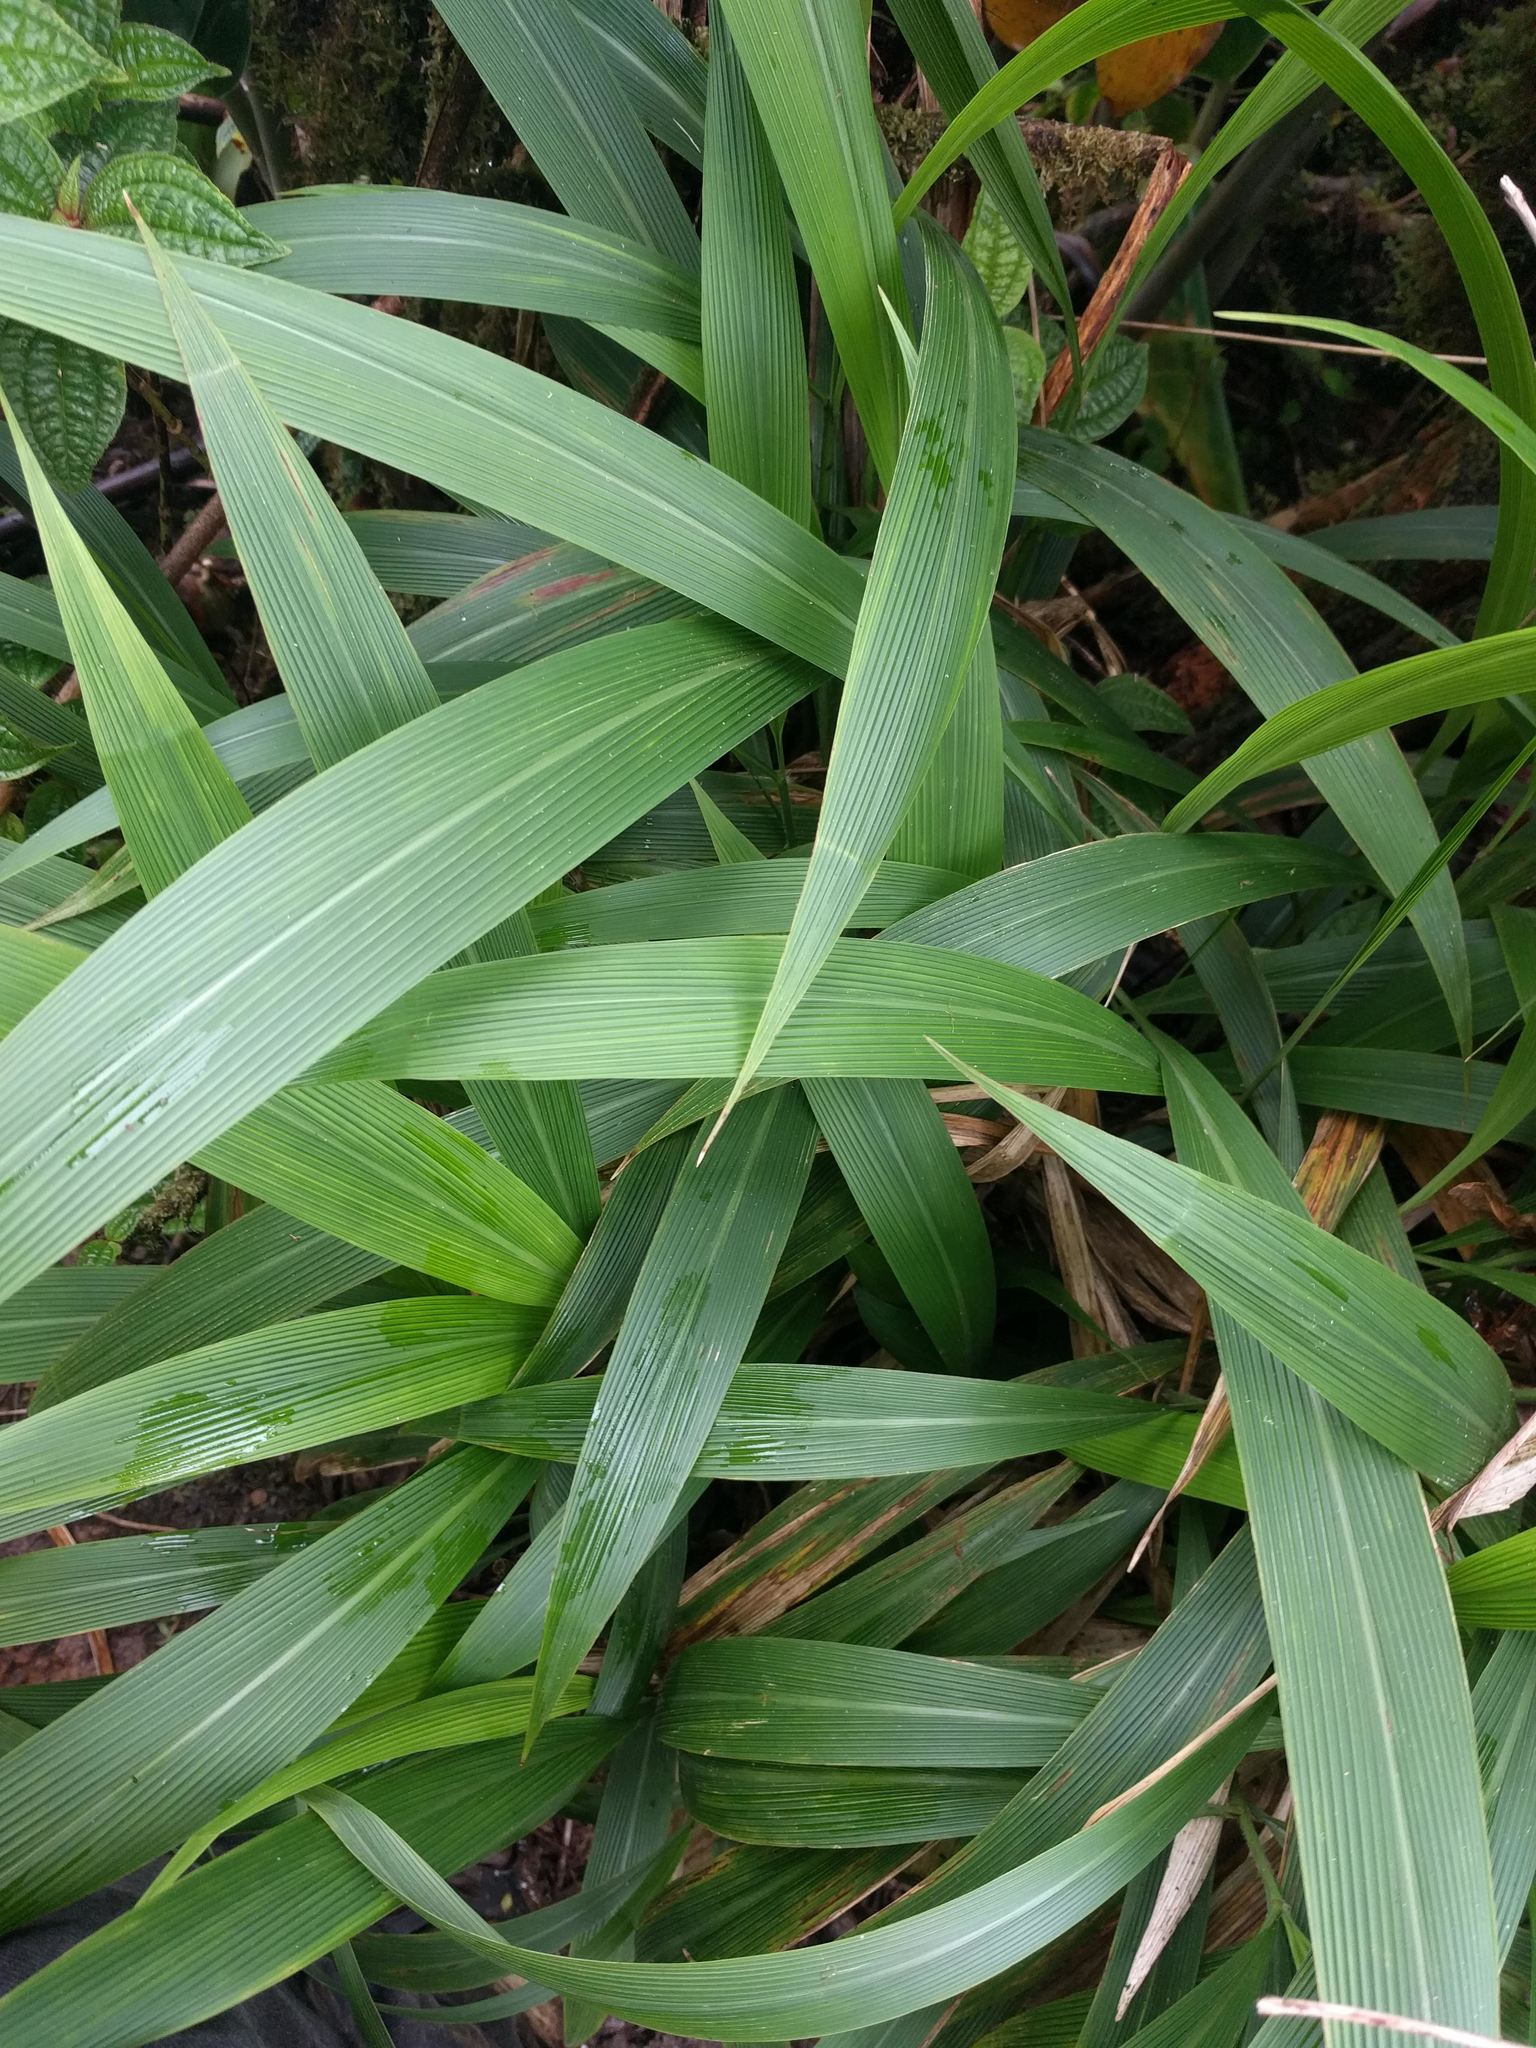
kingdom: Plantae
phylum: Tracheophyta
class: Liliopsida
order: Poales
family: Poaceae
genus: Setaria
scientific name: Setaria palmifolia
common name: Broadleaved bristlegrass
